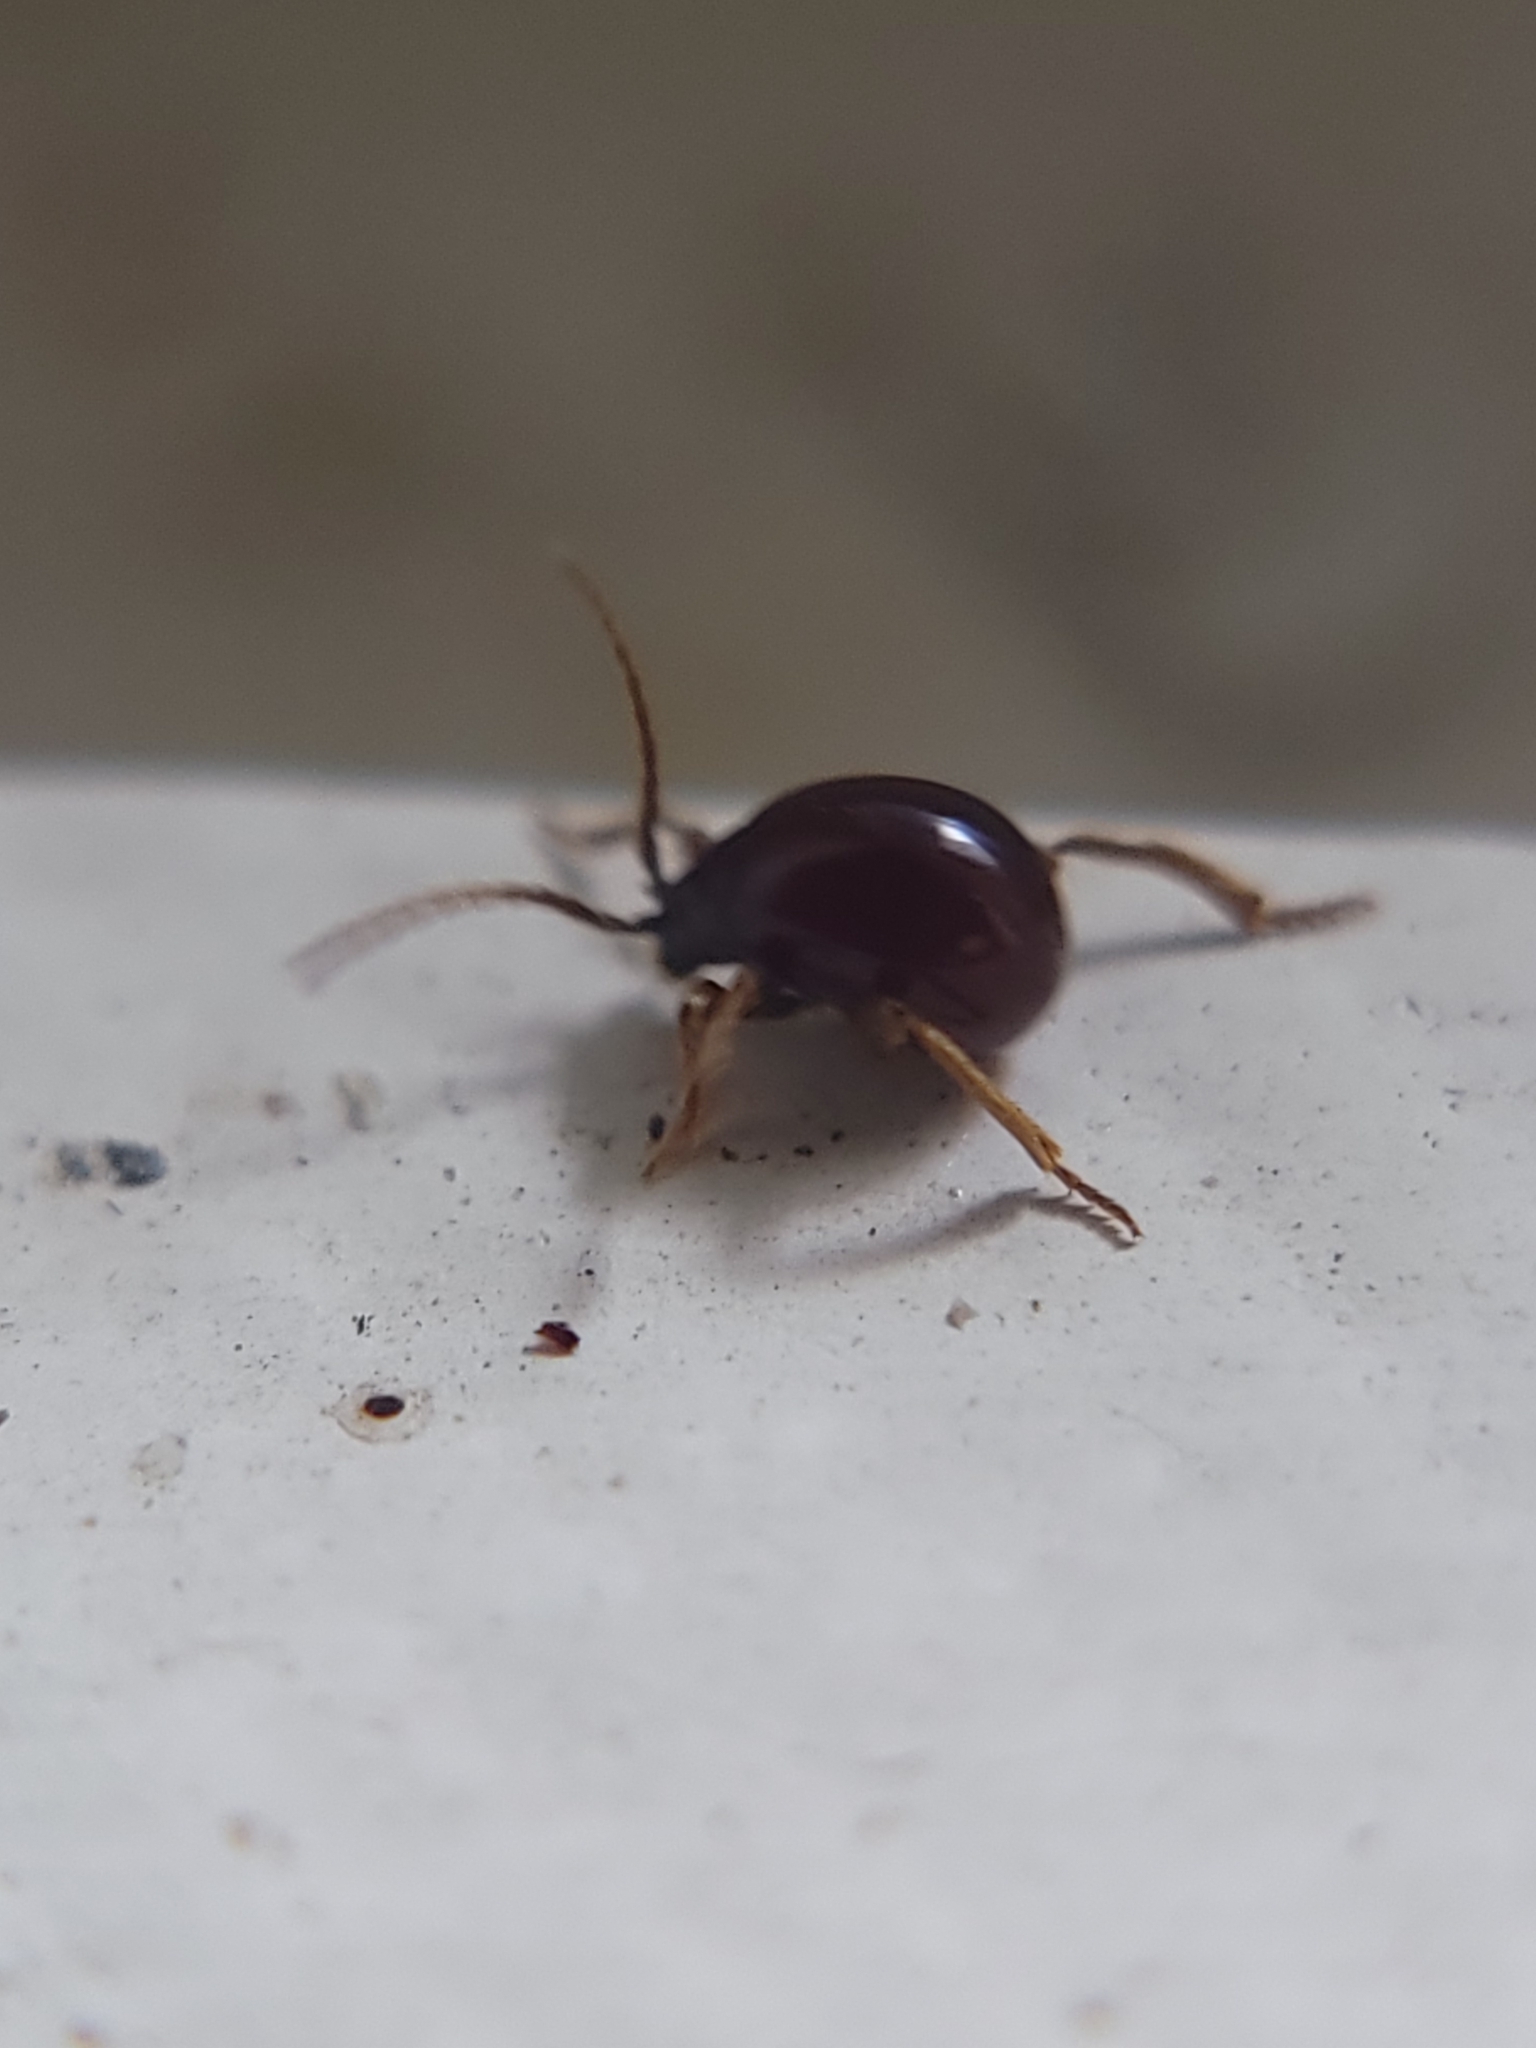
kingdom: Animalia
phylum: Arthropoda
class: Insecta
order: Coleoptera
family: Ptinidae
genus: Gibbium
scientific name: Gibbium aequinoctiale
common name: Smooth spider beetle
